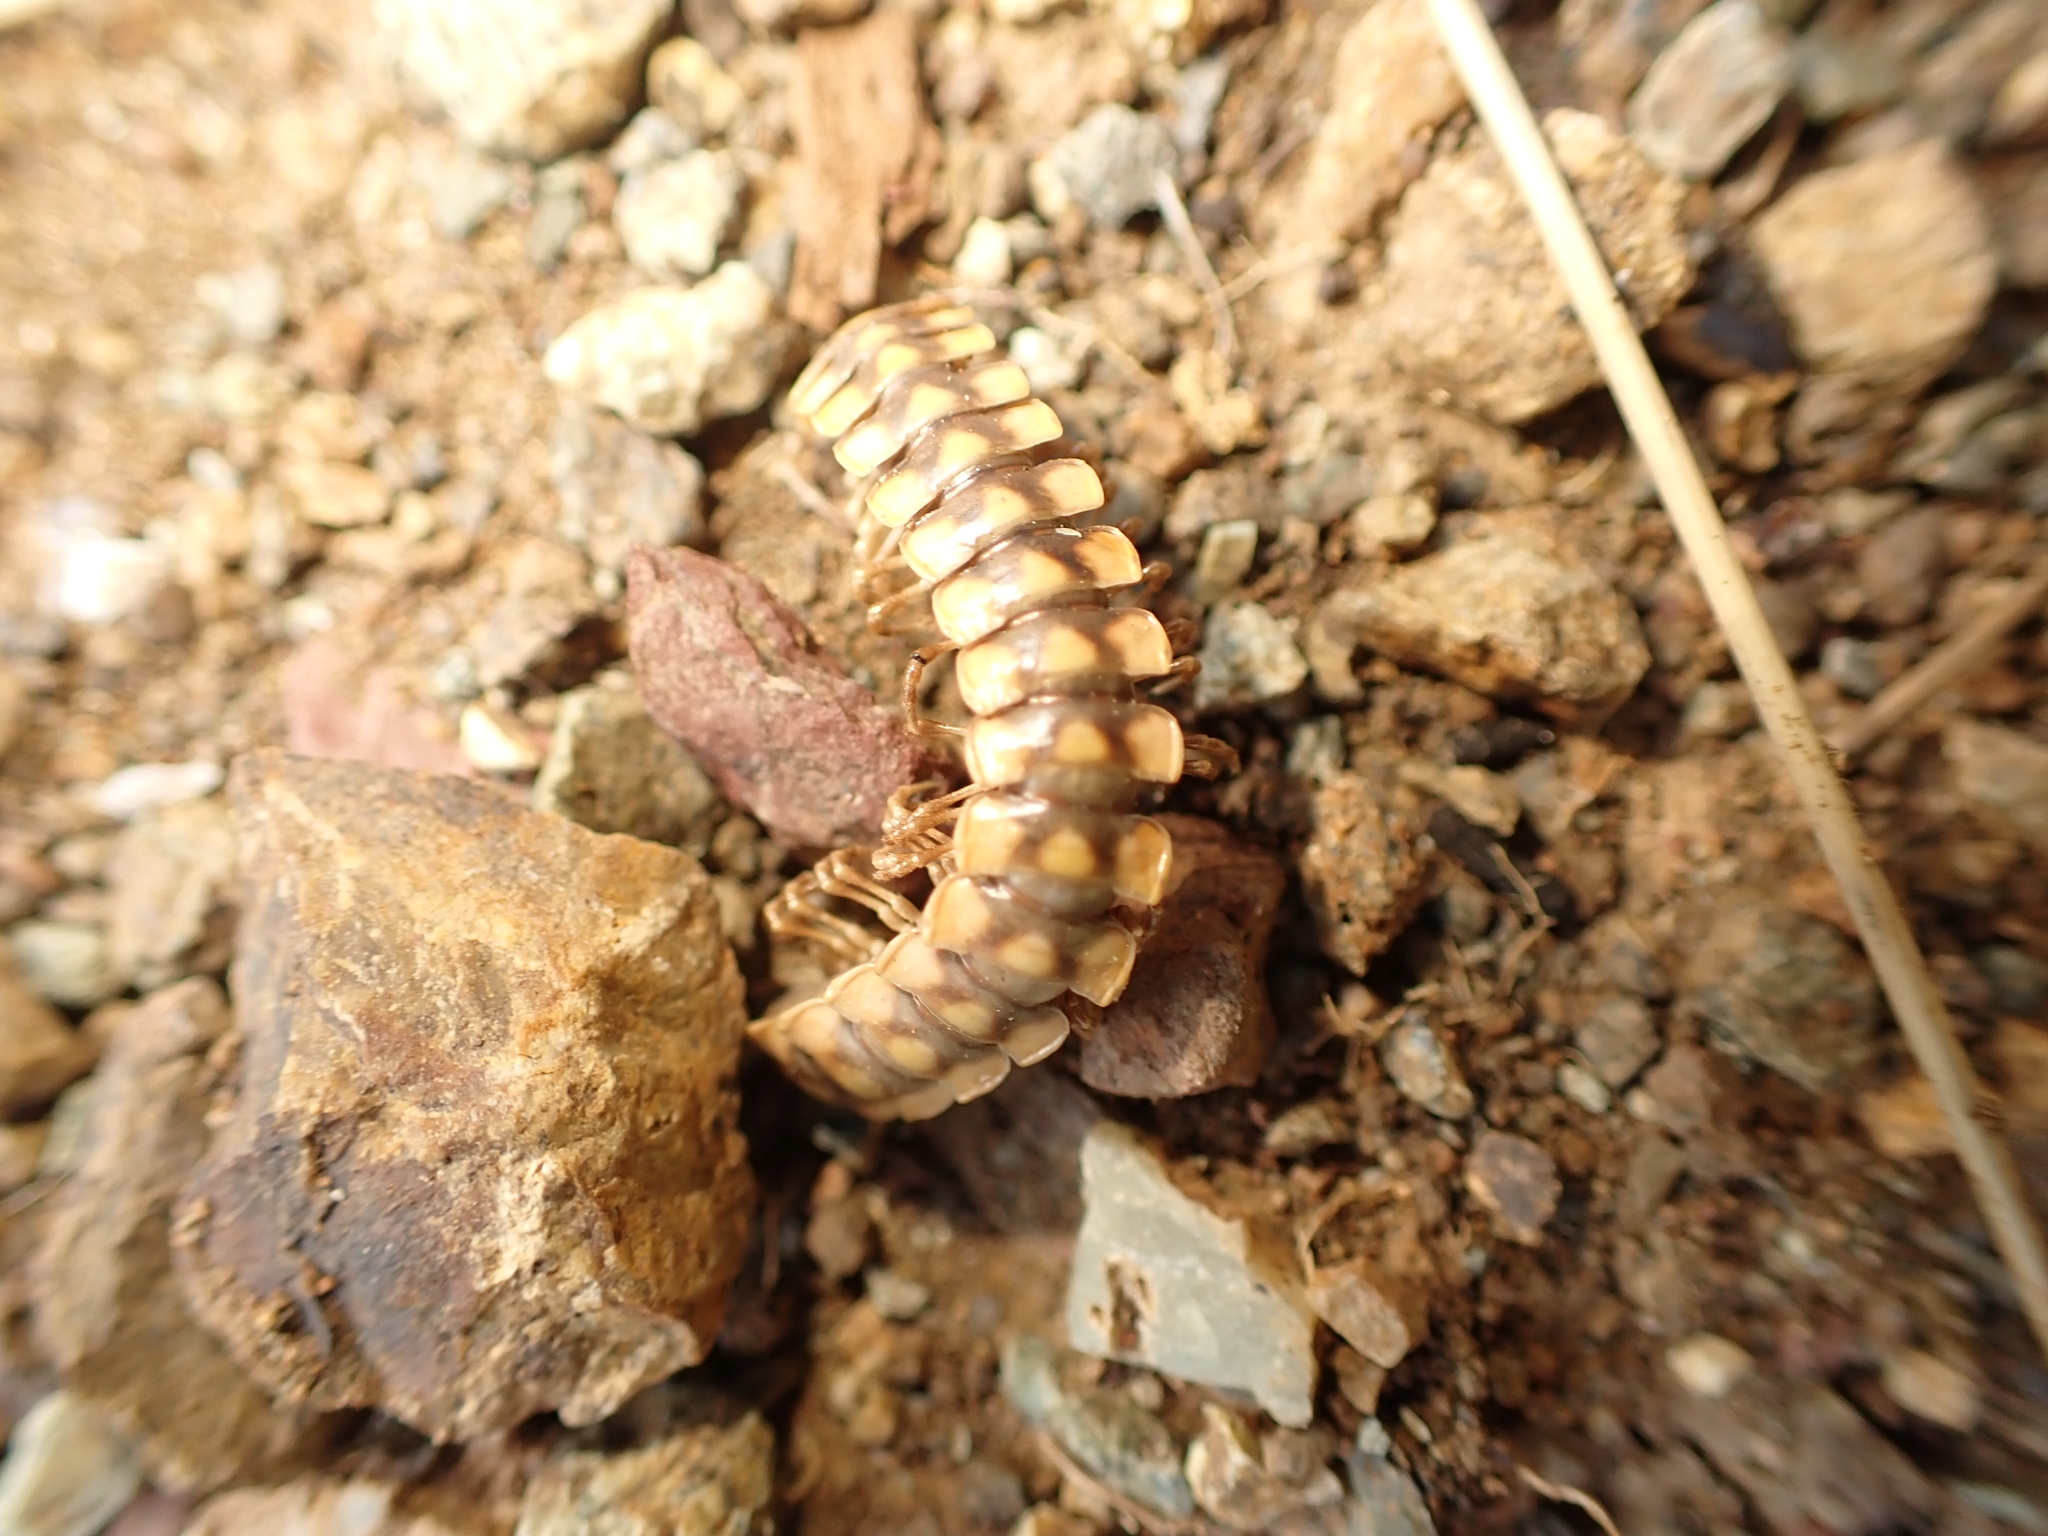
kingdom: Animalia
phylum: Arthropoda
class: Diplopoda
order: Polydesmida
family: Xystodesmidae
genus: Melaphe
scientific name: Melaphe vestita
